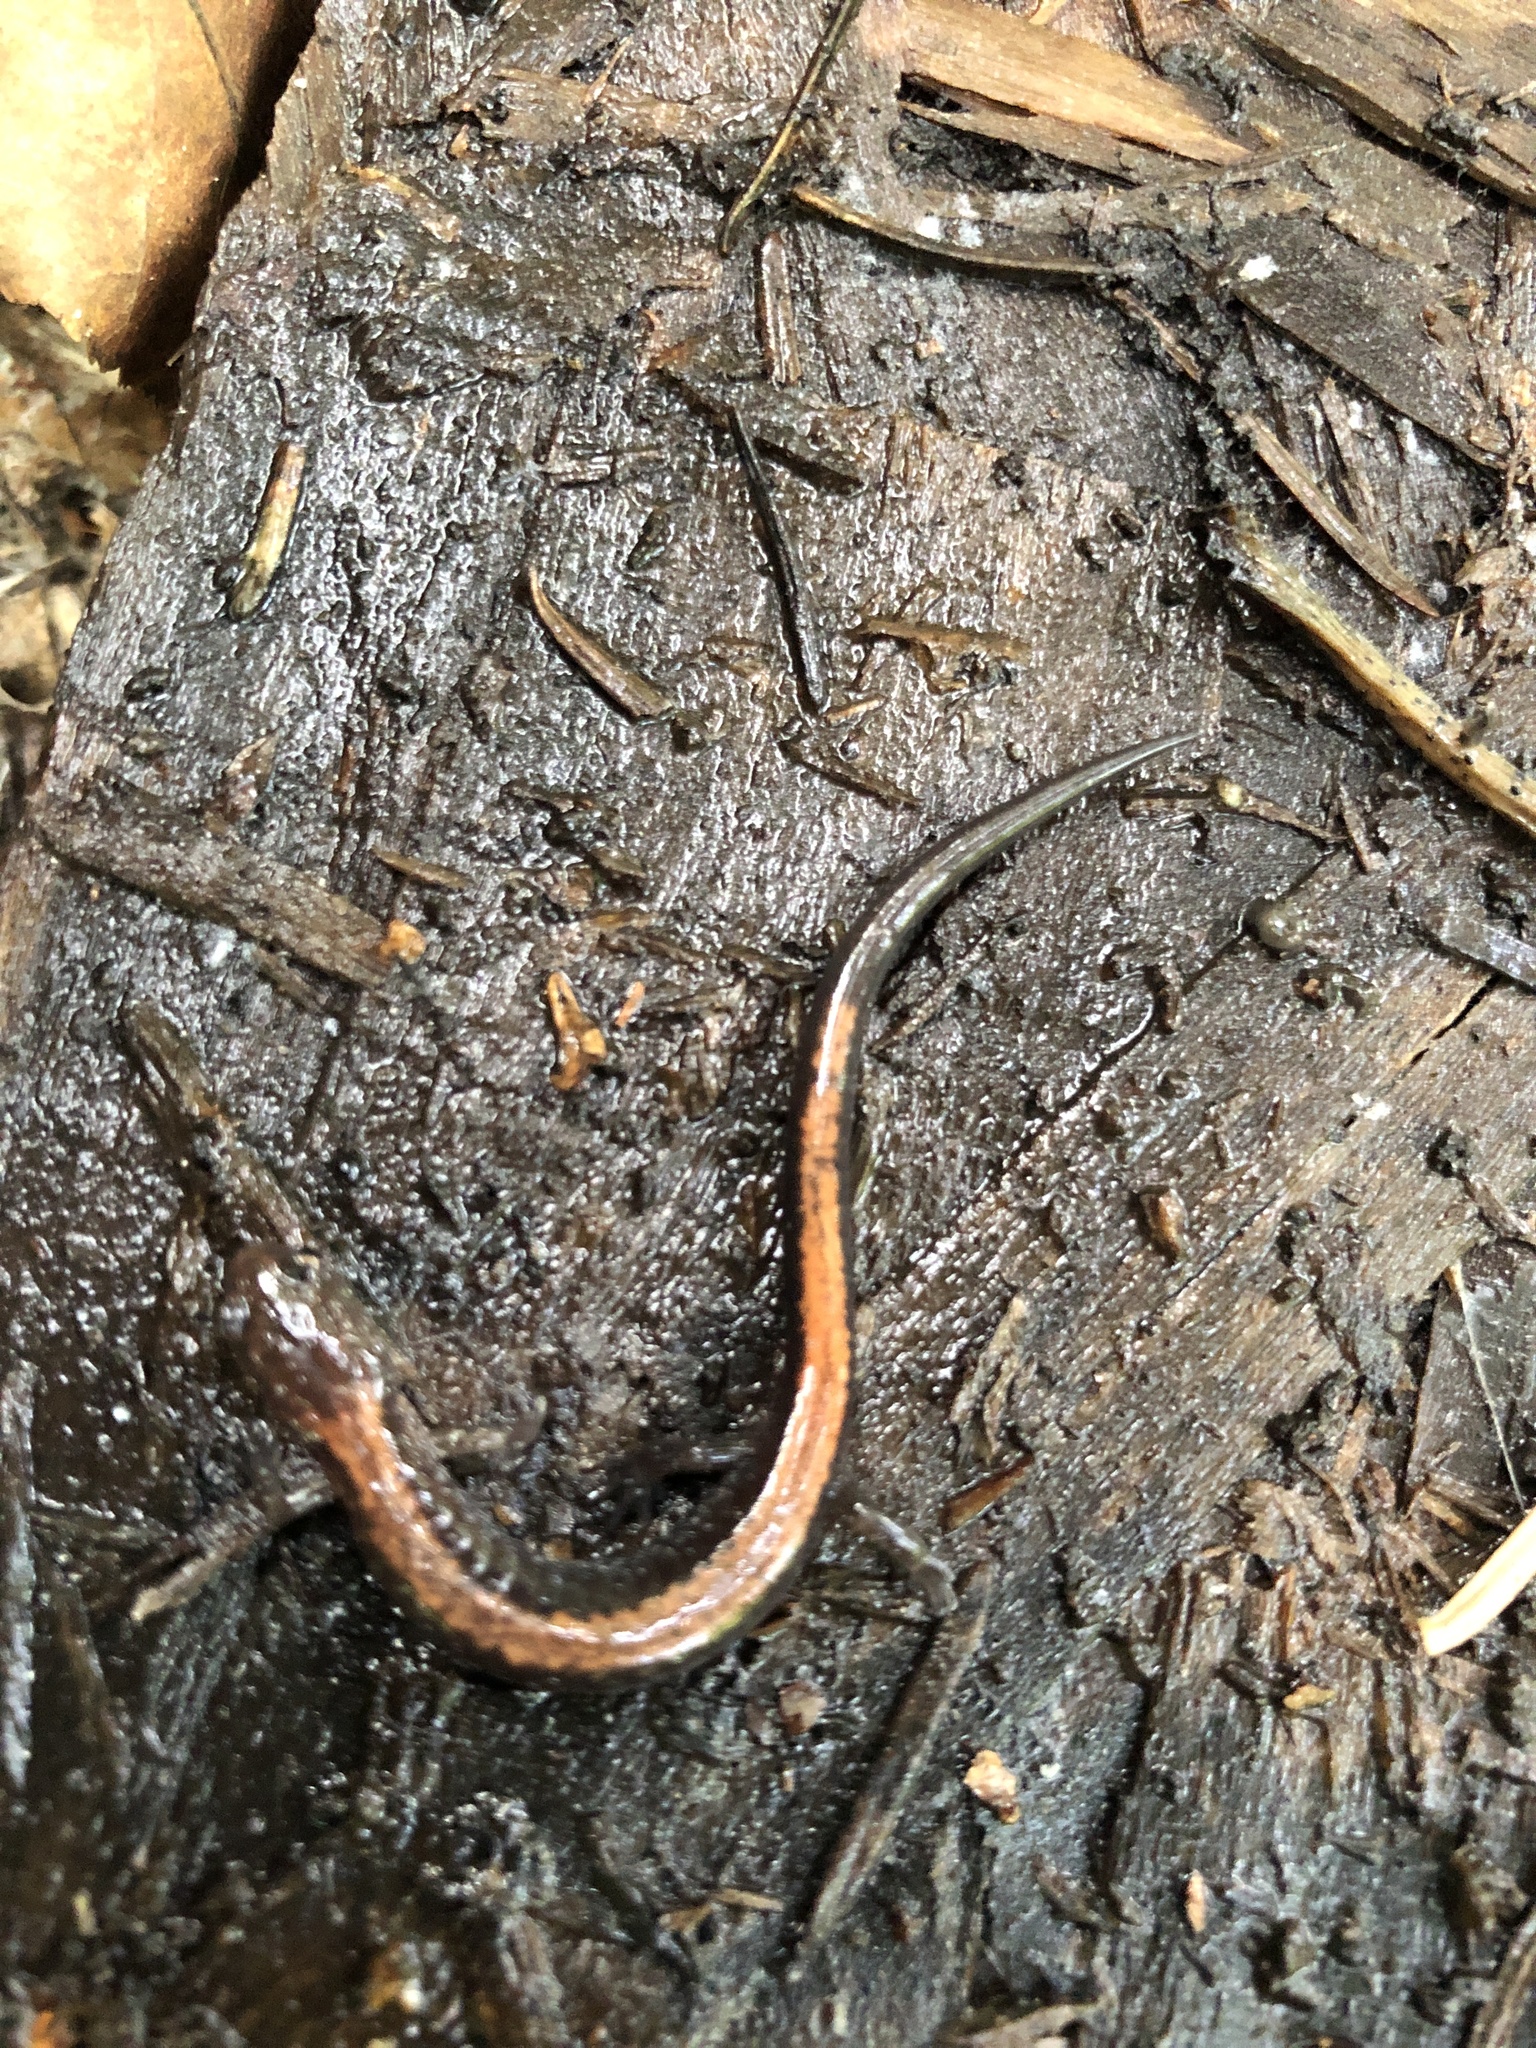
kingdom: Animalia
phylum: Chordata
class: Amphibia
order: Caudata
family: Plethodontidae
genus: Plethodon
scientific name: Plethodon cinereus
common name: Redback salamander
